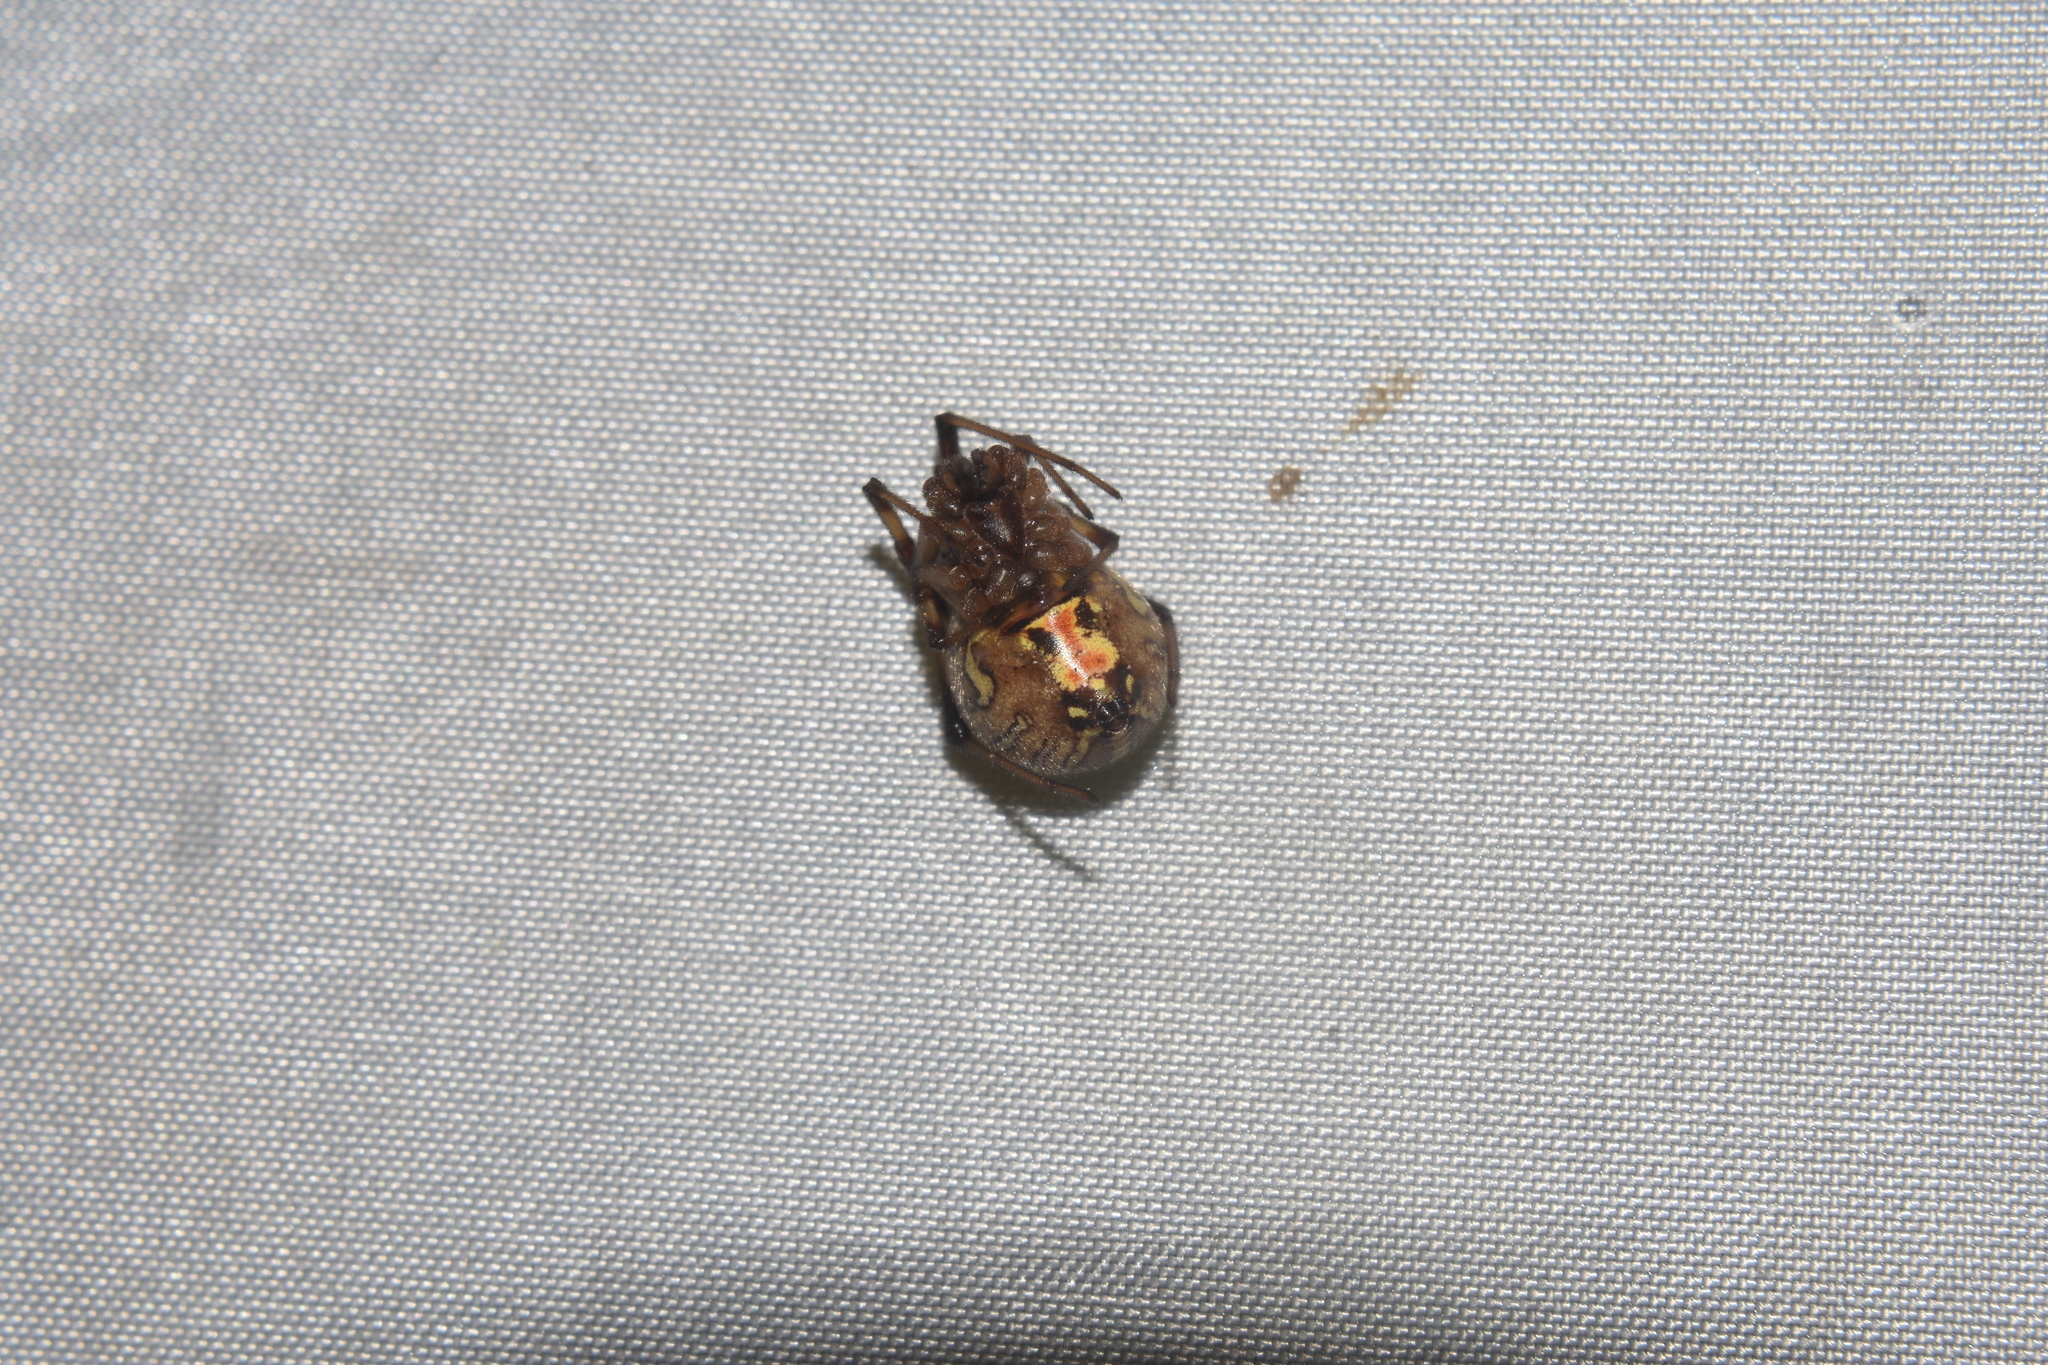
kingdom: Animalia
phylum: Arthropoda
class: Arachnida
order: Araneae
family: Theridiidae
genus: Latrodectus
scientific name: Latrodectus geometricus
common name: Brown widow spider
